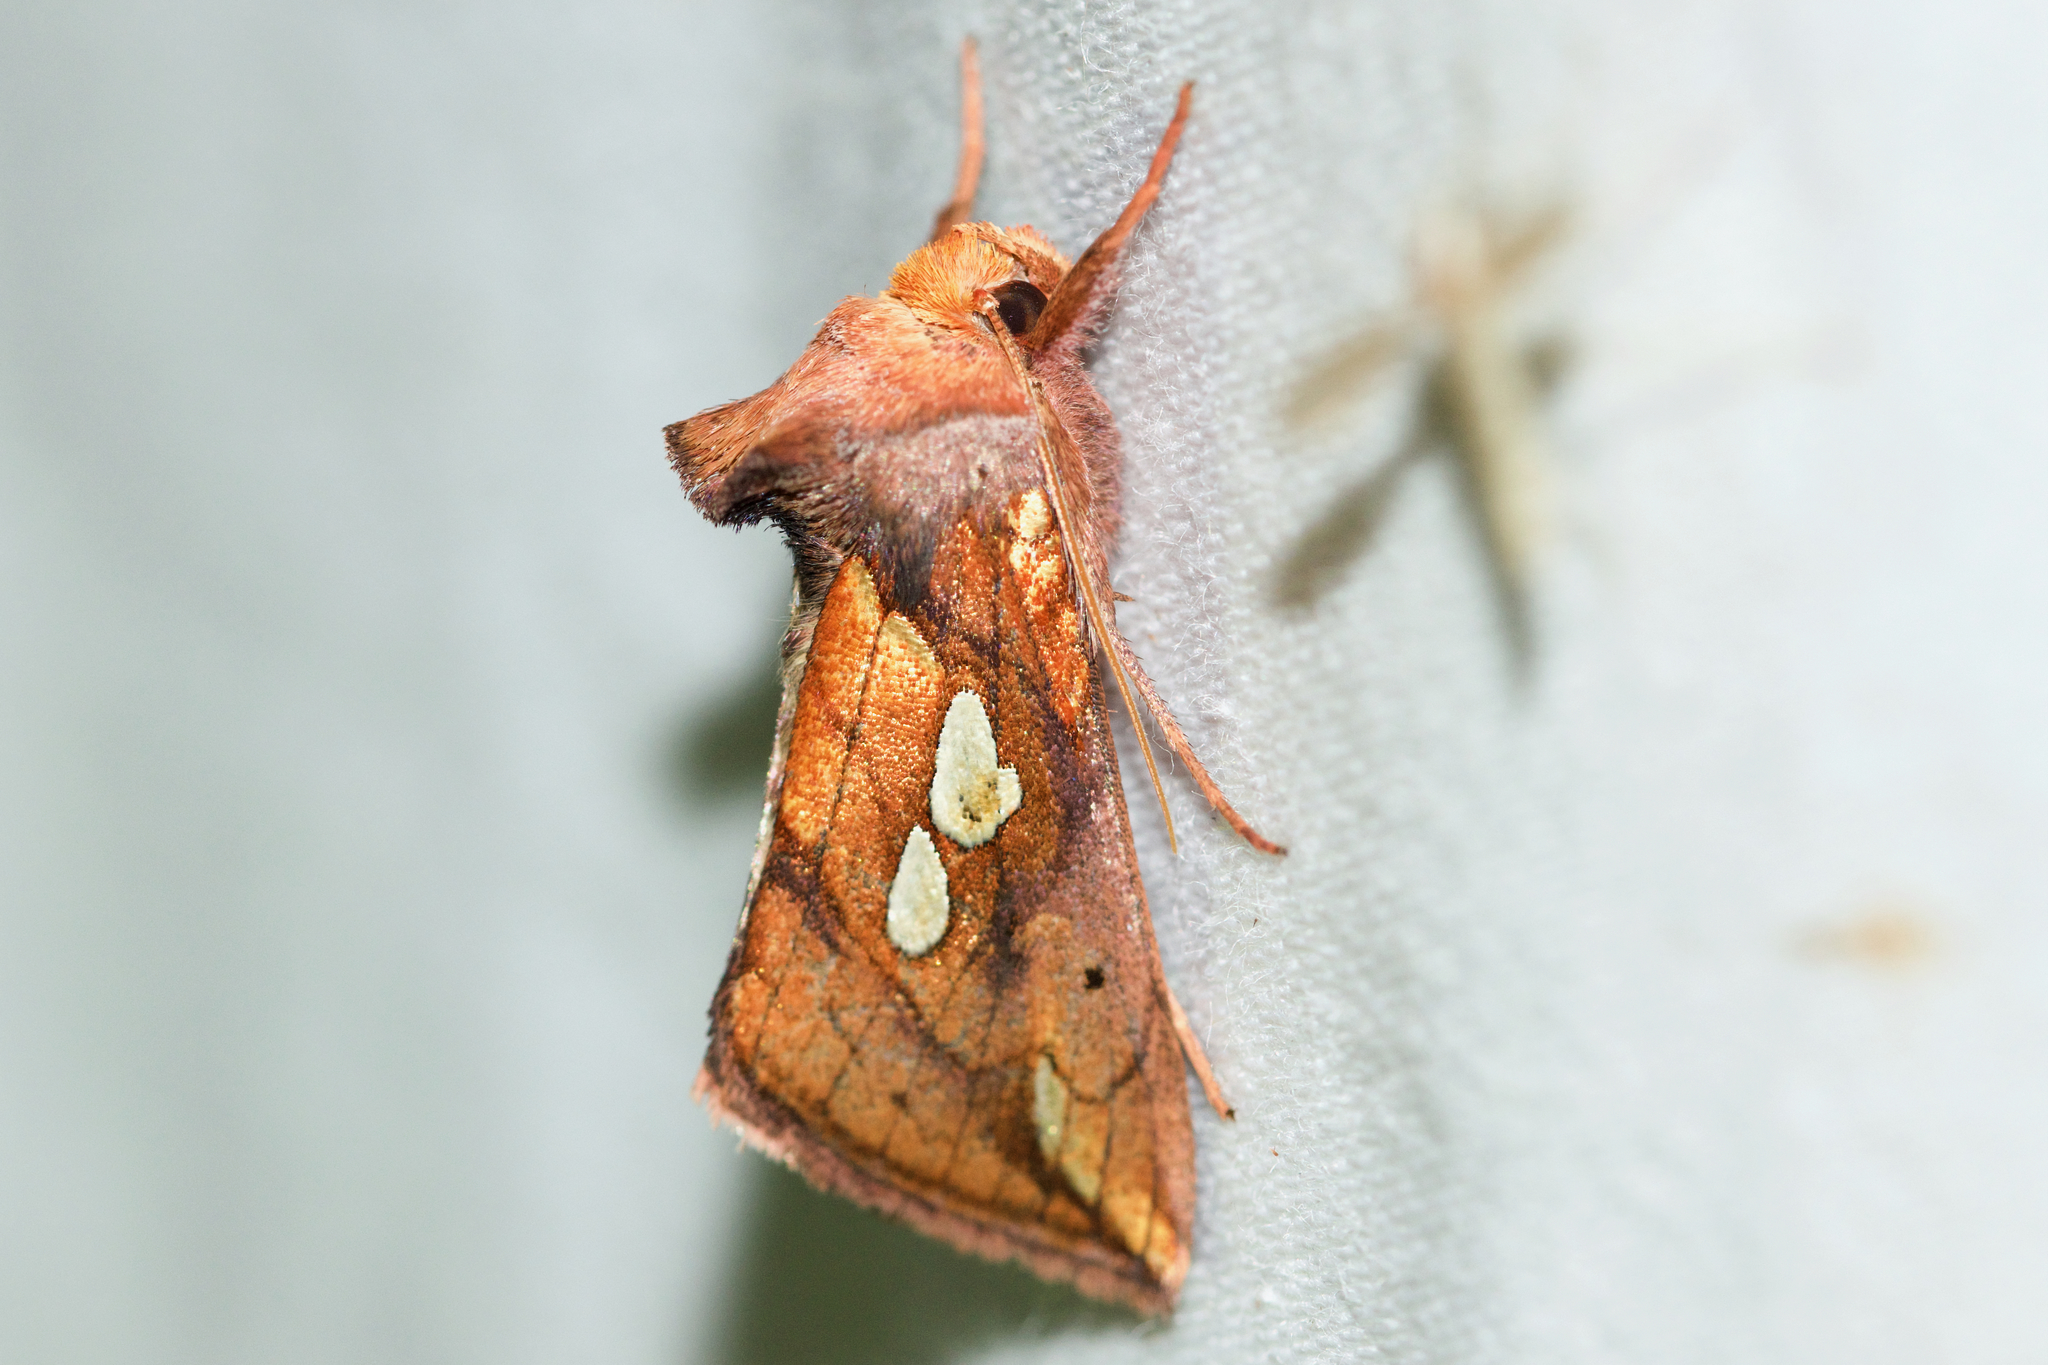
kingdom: Animalia
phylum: Arthropoda
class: Insecta
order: Lepidoptera
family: Noctuidae
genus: Plusia
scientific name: Plusia putnami
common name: Lempke's gold spot
